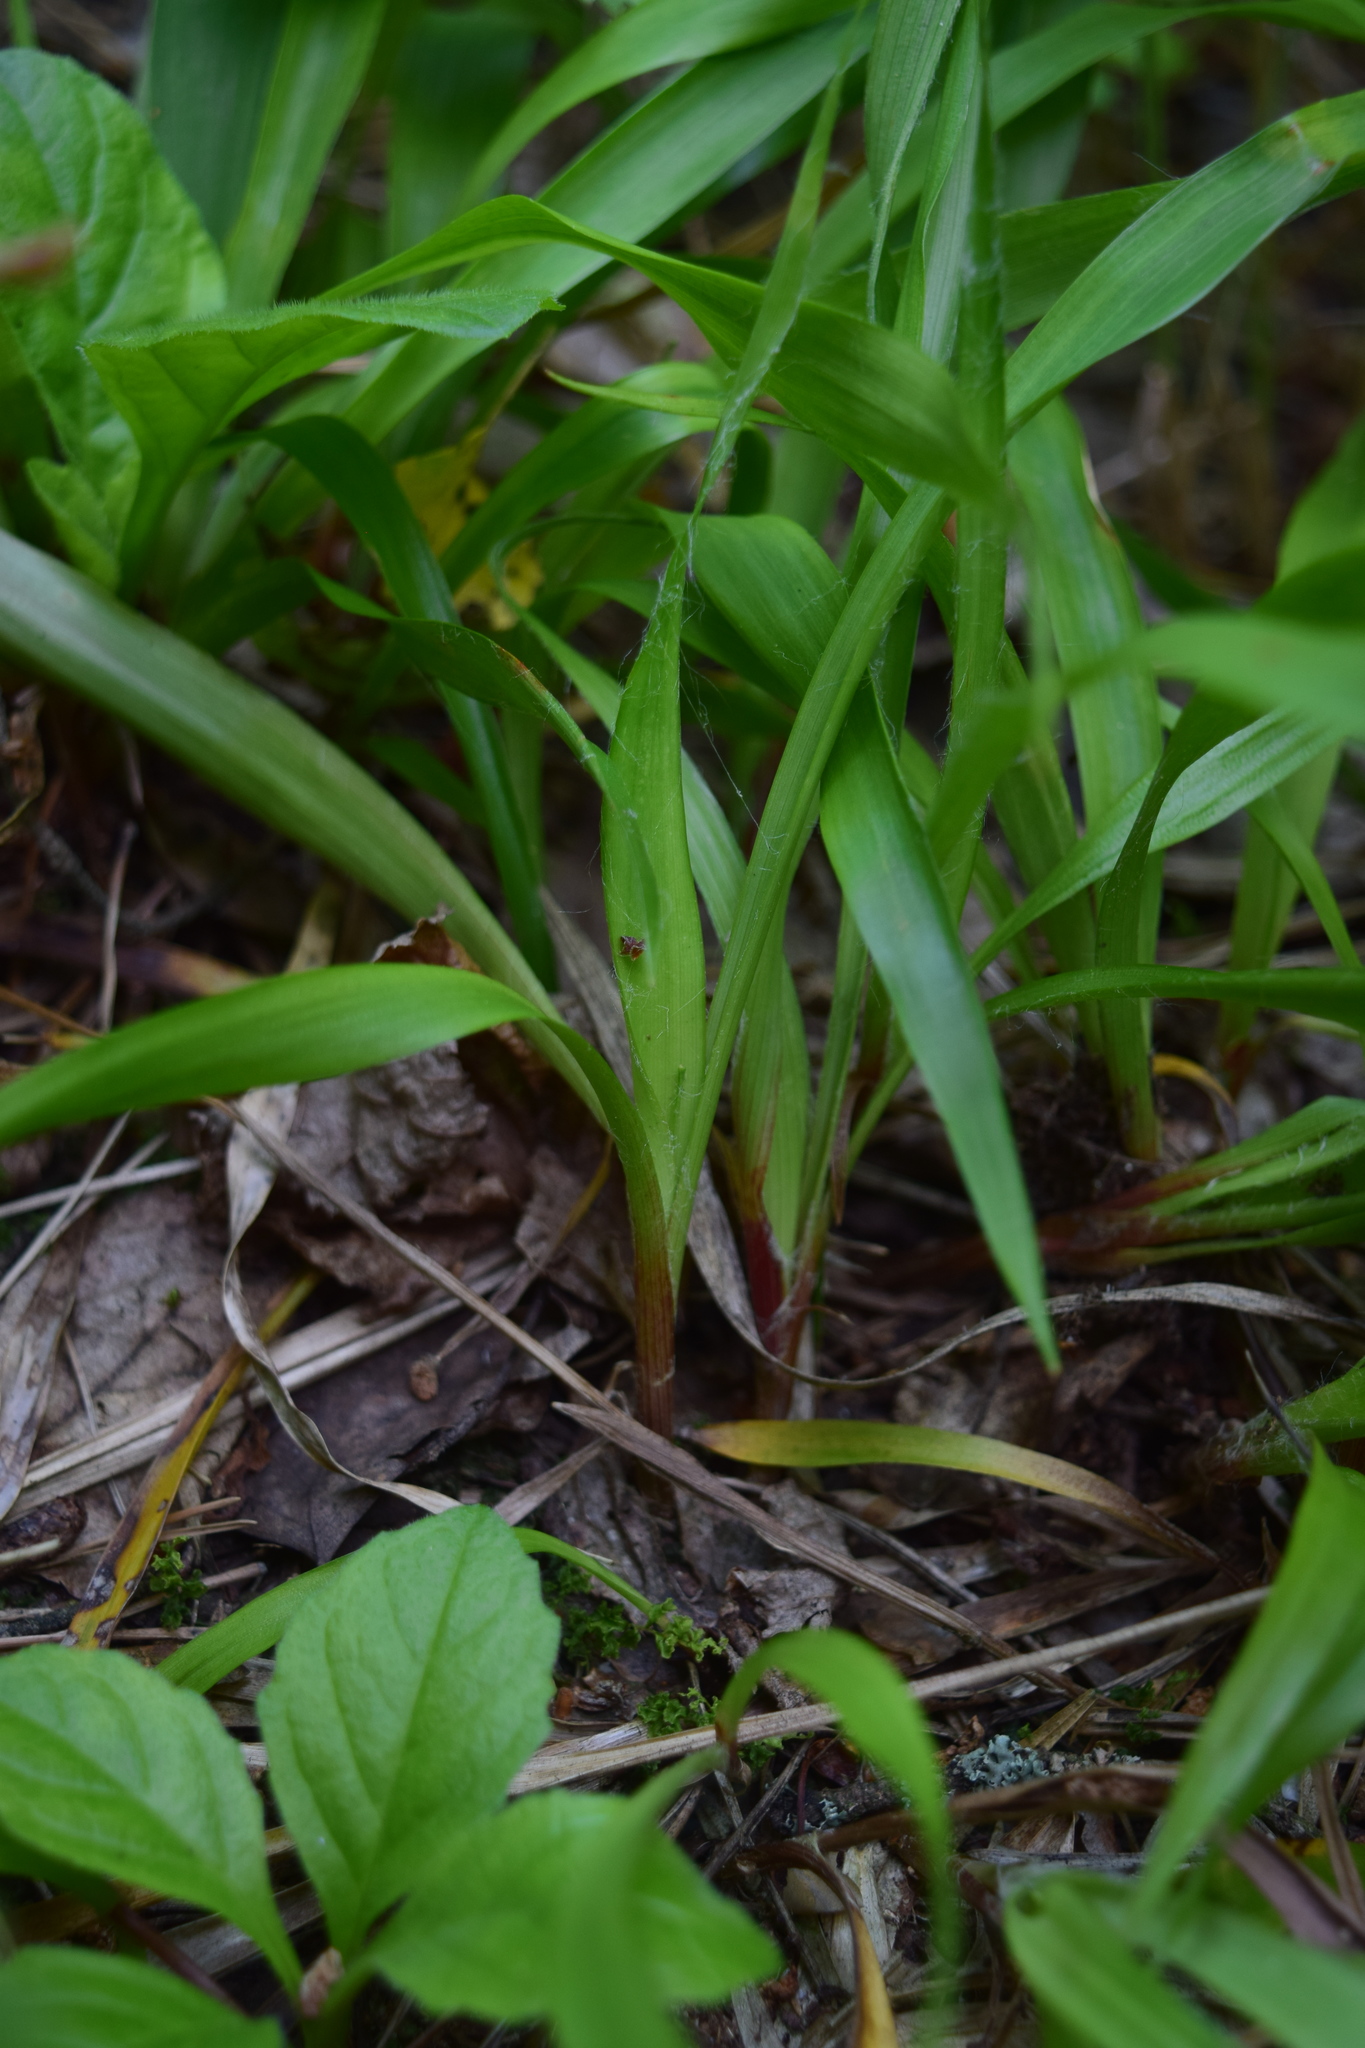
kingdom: Plantae
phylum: Tracheophyta
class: Liliopsida
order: Poales
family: Juncaceae
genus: Luzula
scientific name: Luzula pilosa
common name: Hairy wood-rush
